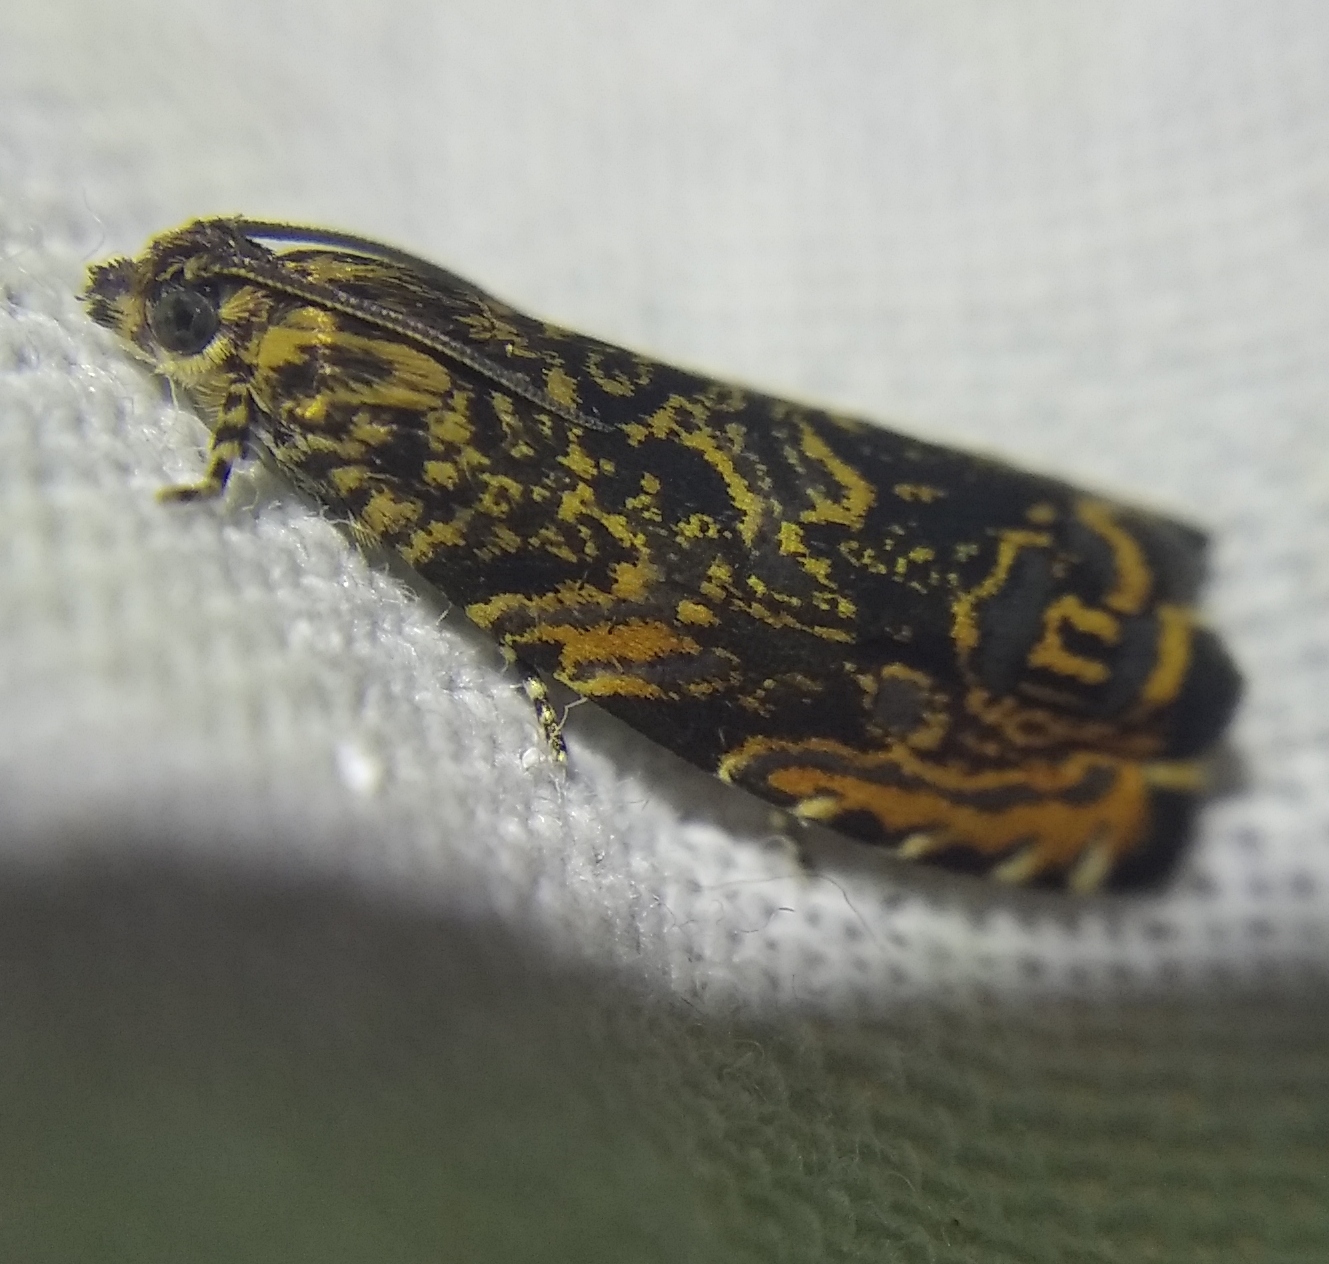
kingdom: Animalia
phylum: Arthropoda
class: Insecta
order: Lepidoptera
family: Tortricidae
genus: Enarmonia
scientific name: Enarmonia formosana
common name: Cherry bark tortrix
